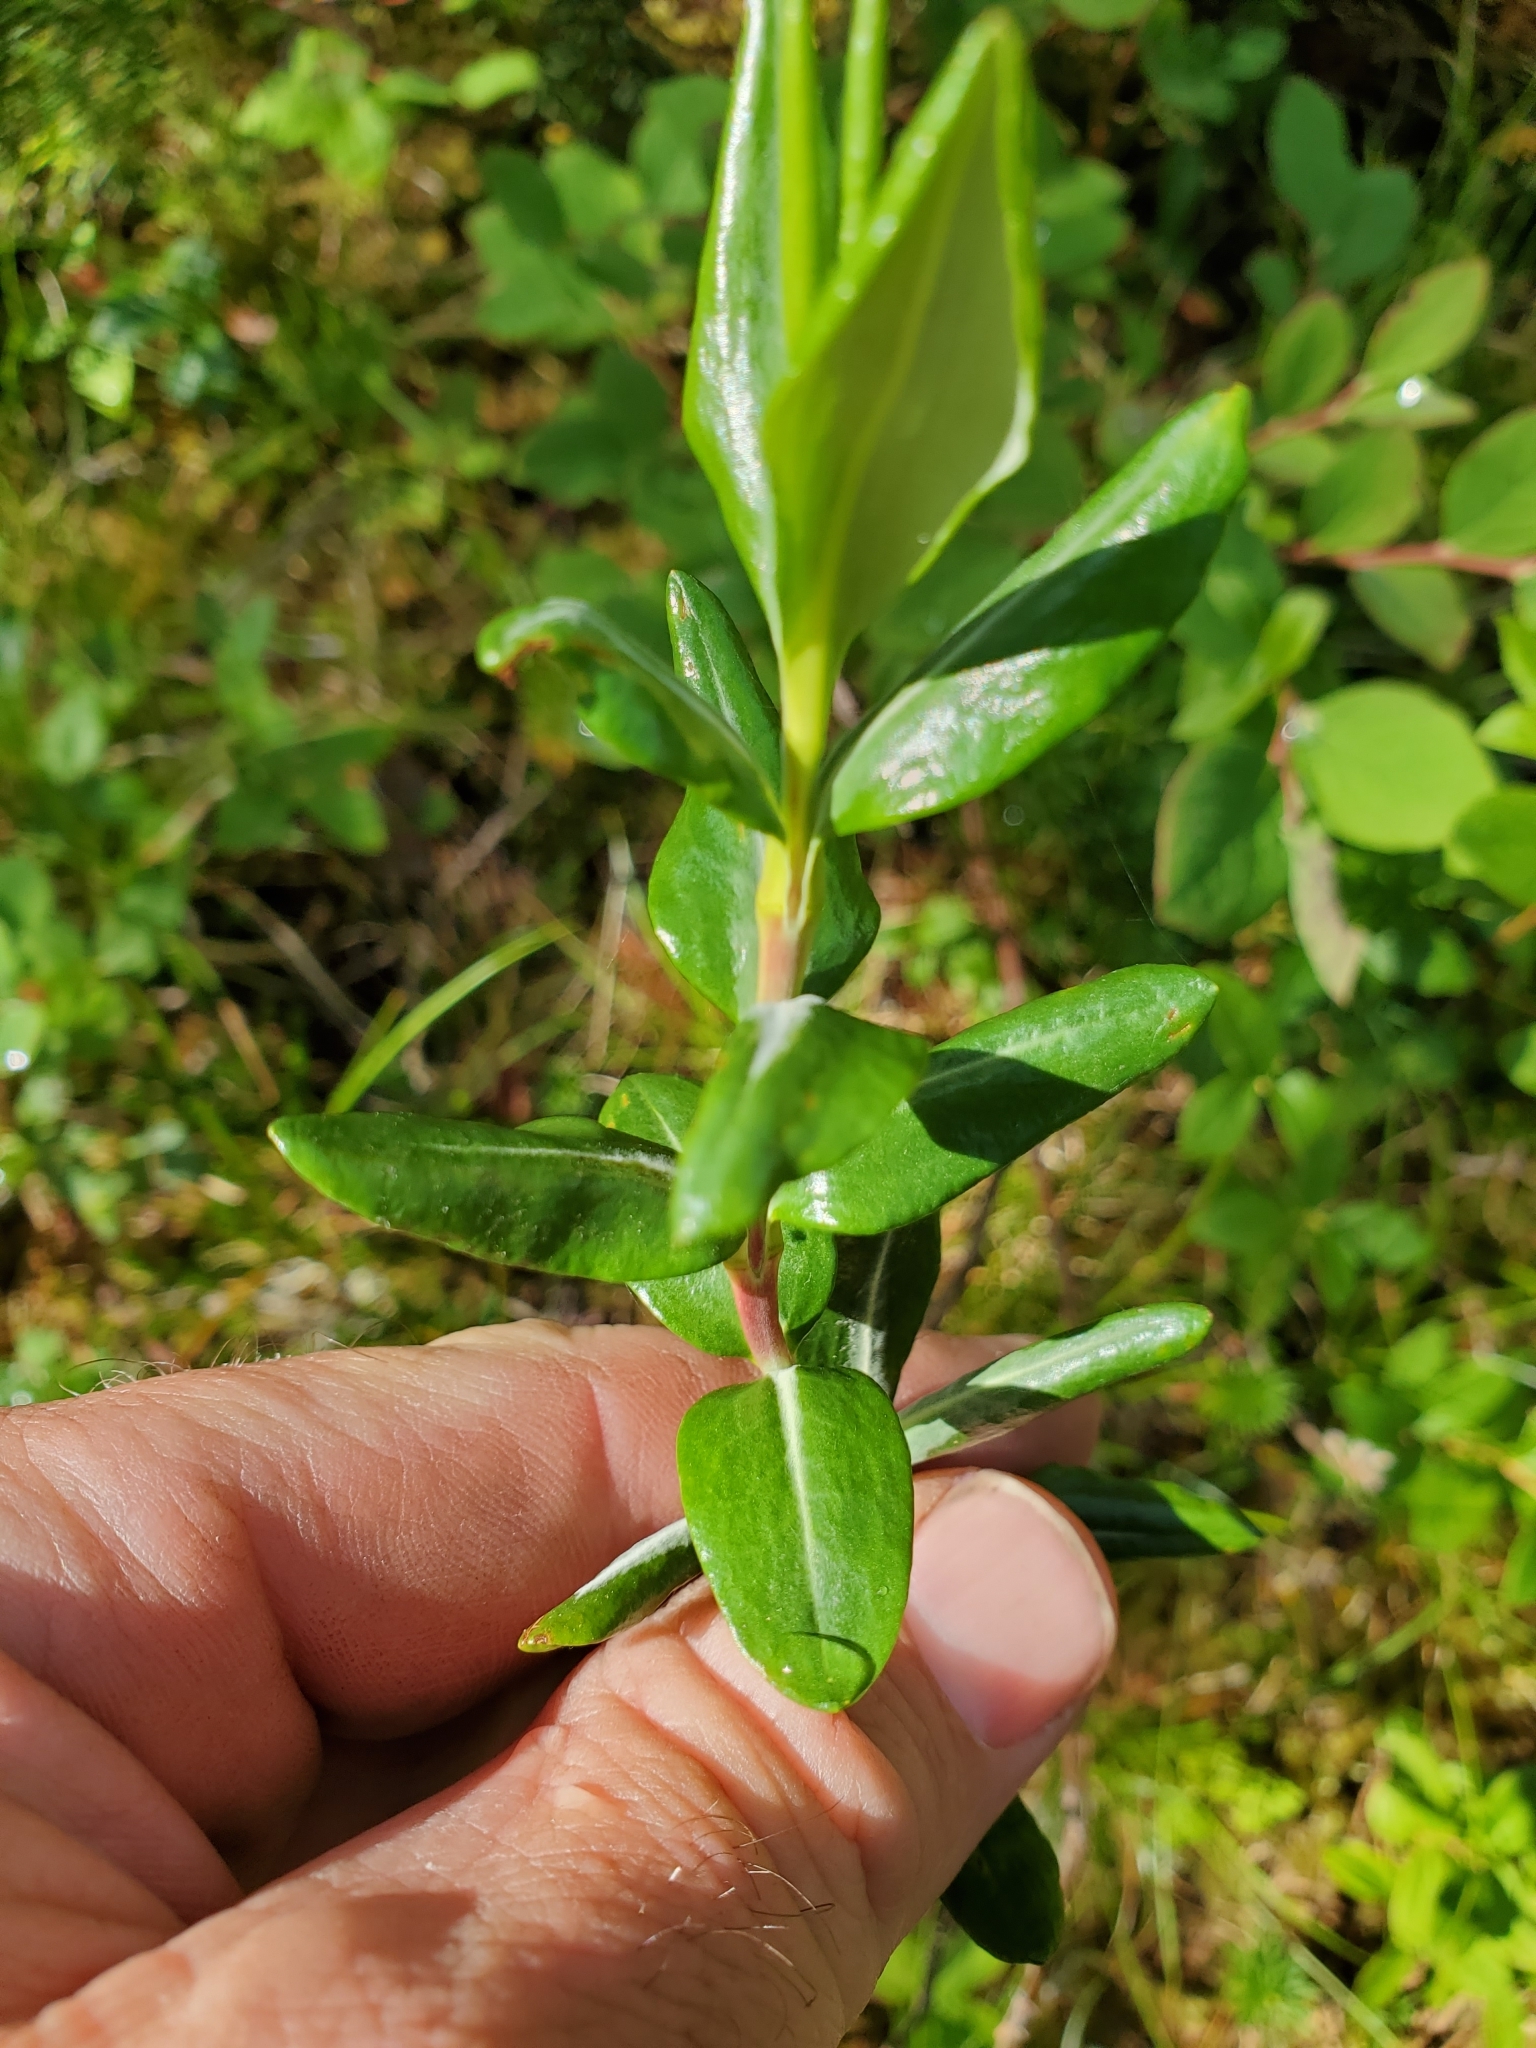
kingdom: Plantae
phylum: Tracheophyta
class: Magnoliopsida
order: Ericales
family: Ericaceae
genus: Kalmia
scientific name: Kalmia microphylla
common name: Alpine bog laurel
